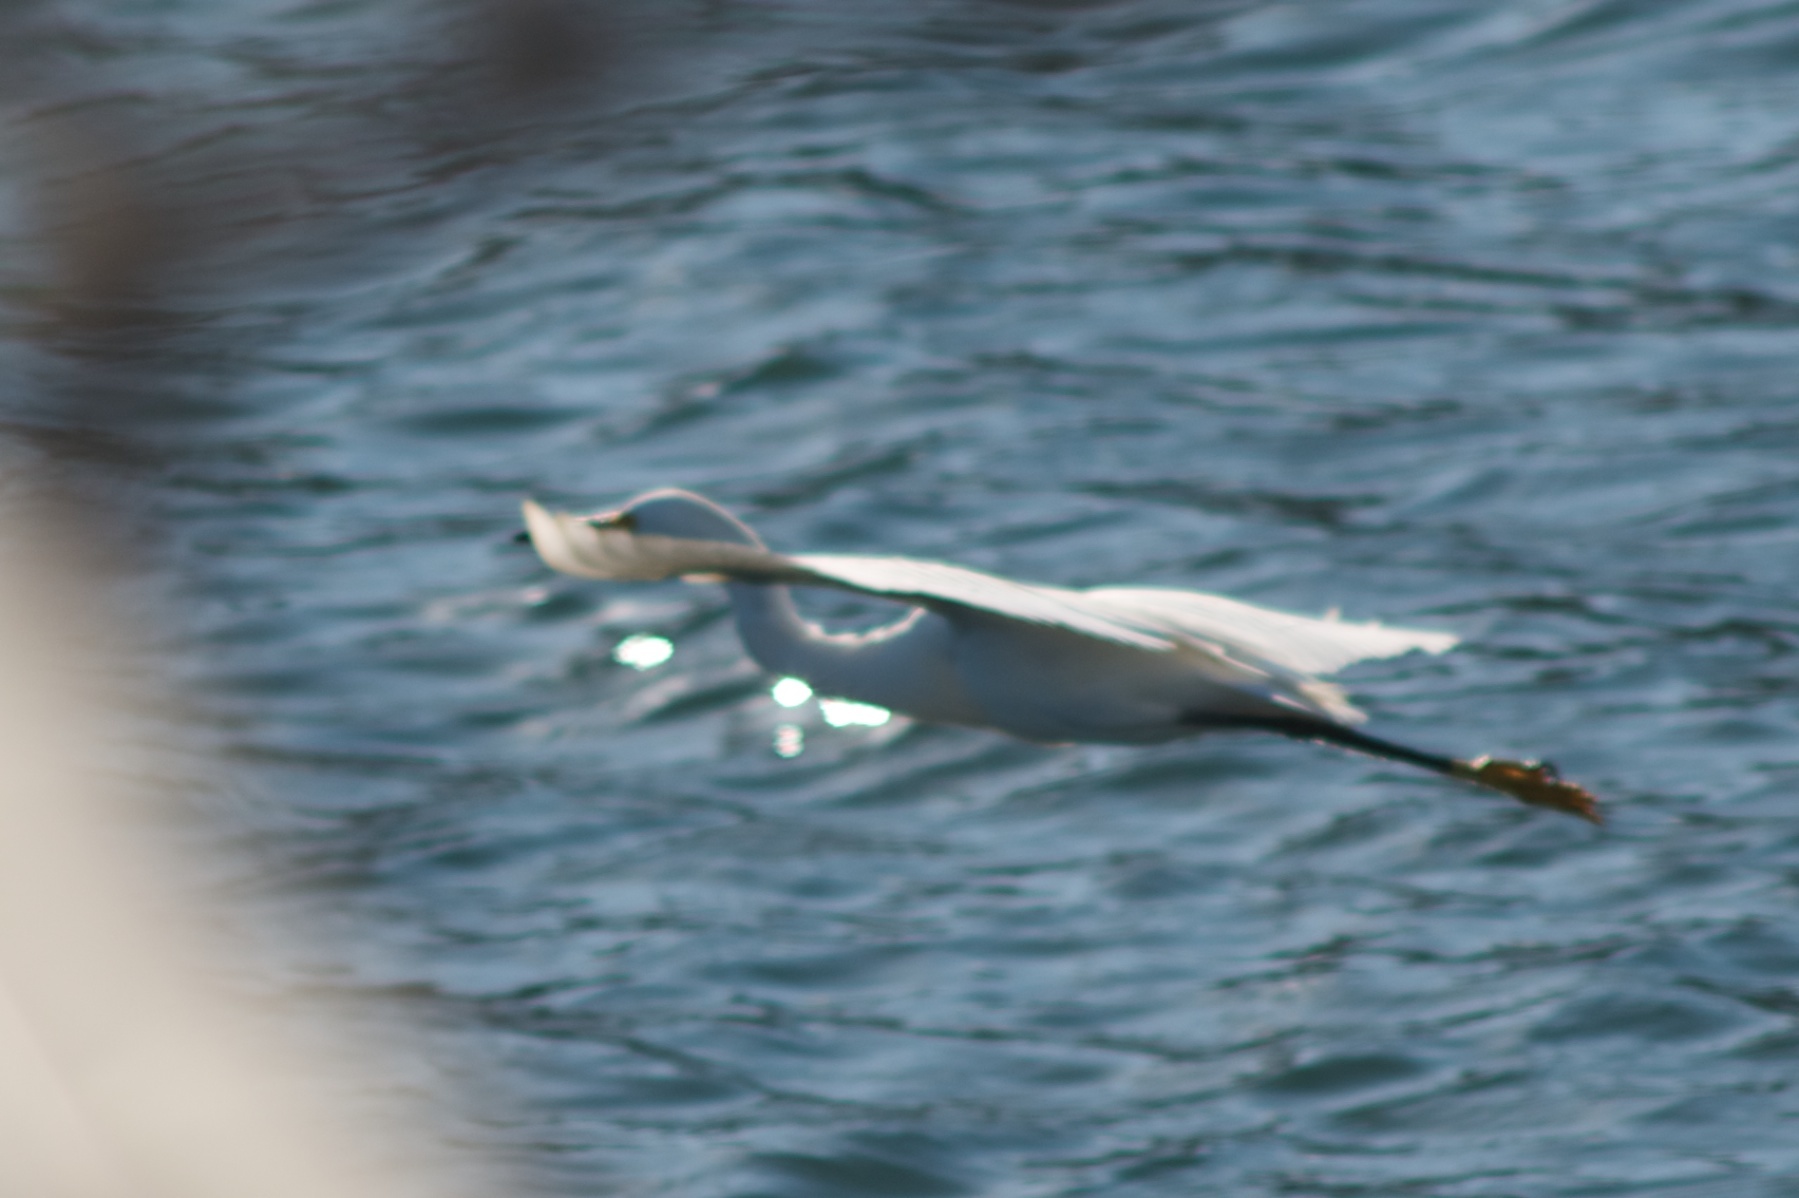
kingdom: Animalia
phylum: Chordata
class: Aves
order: Pelecaniformes
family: Ardeidae
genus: Egretta
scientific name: Egretta thula
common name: Snowy egret
